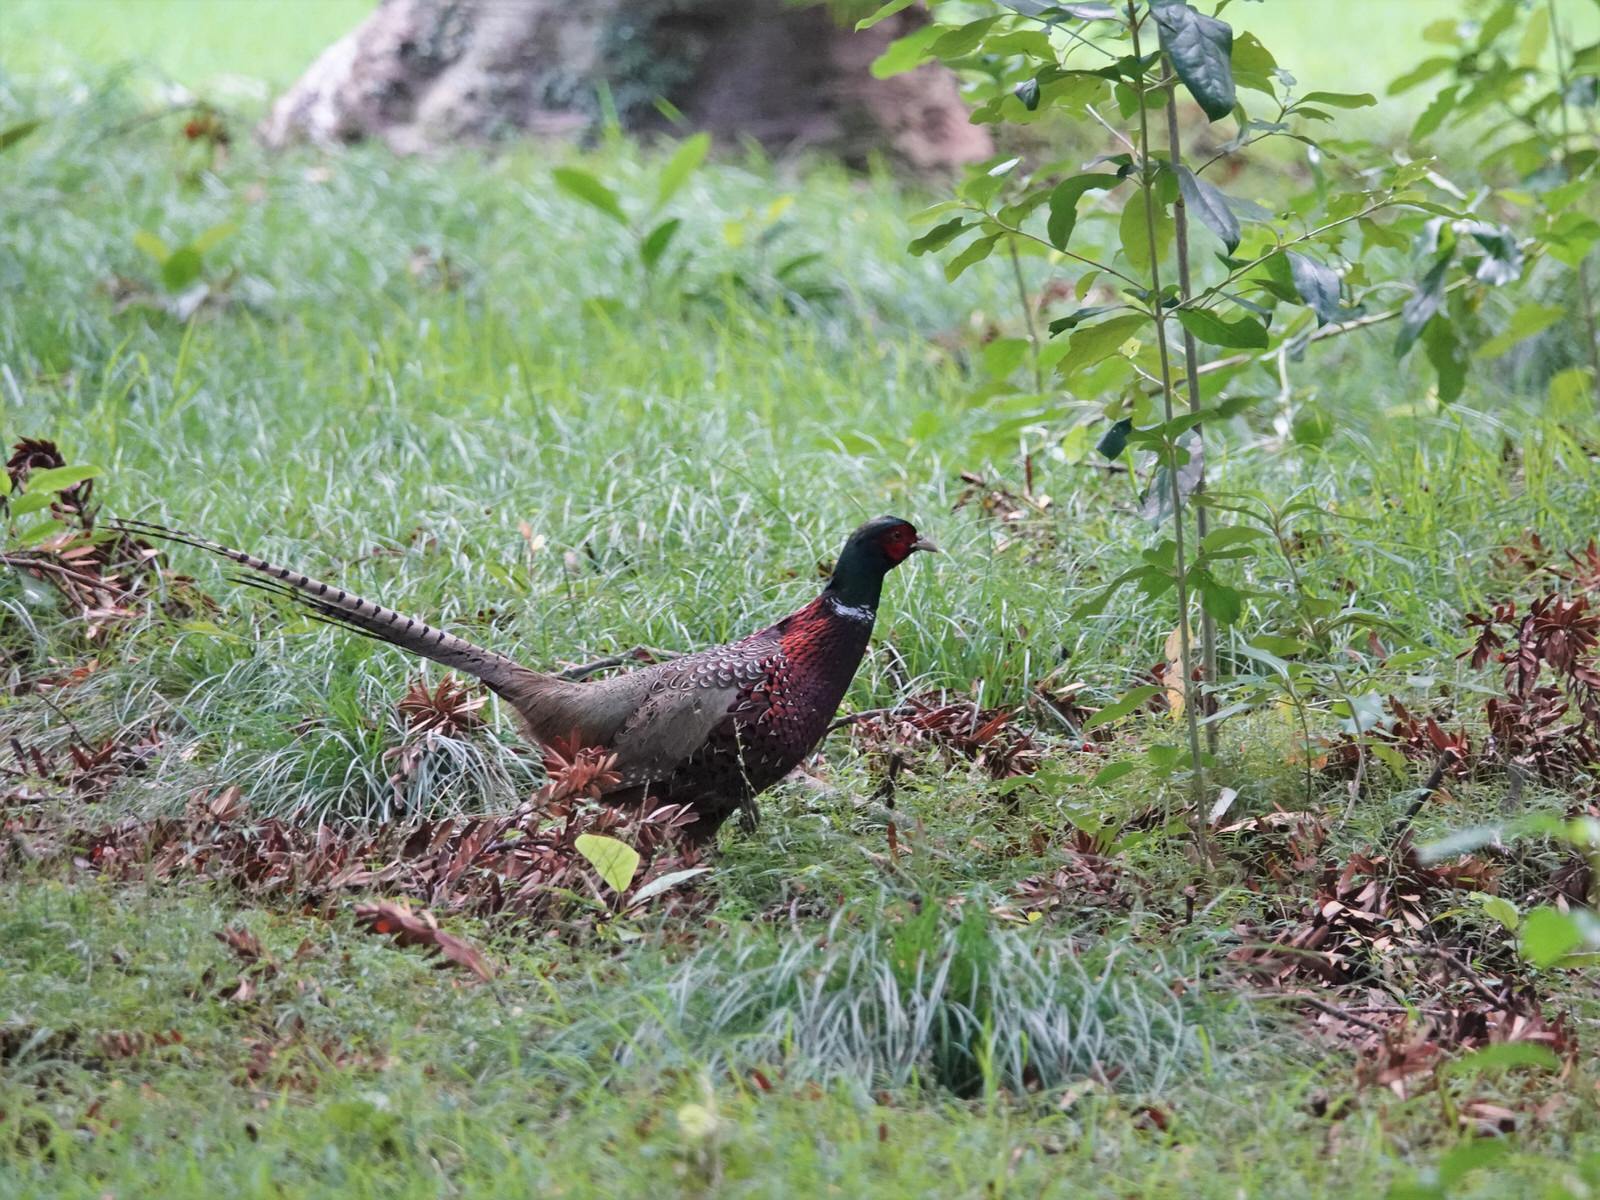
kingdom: Animalia
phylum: Chordata
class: Aves
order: Galliformes
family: Phasianidae
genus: Phasianus
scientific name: Phasianus colchicus
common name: Common pheasant
